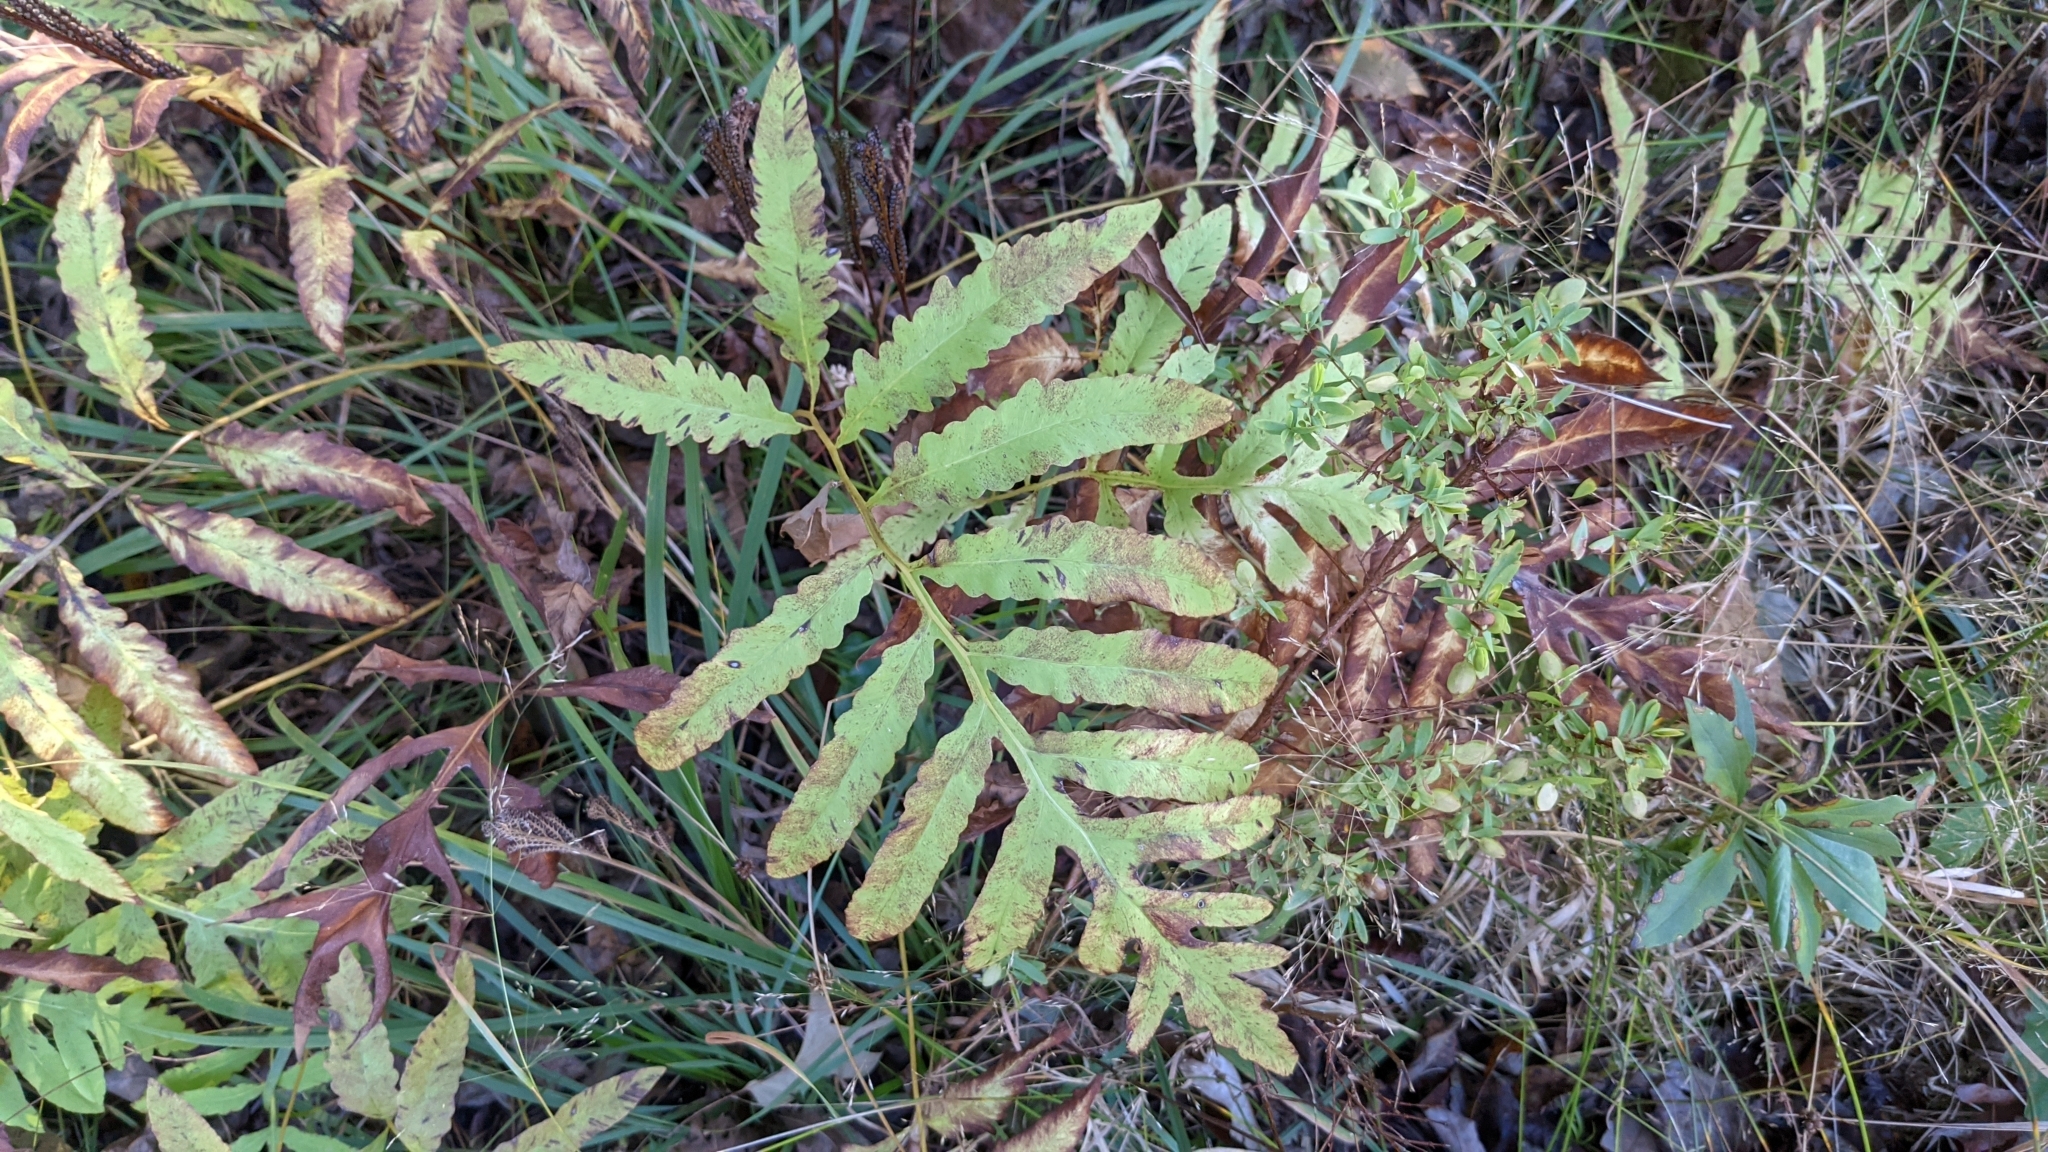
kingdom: Plantae
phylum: Tracheophyta
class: Polypodiopsida
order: Polypodiales
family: Onocleaceae
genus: Onoclea
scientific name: Onoclea sensibilis
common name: Sensitive fern
